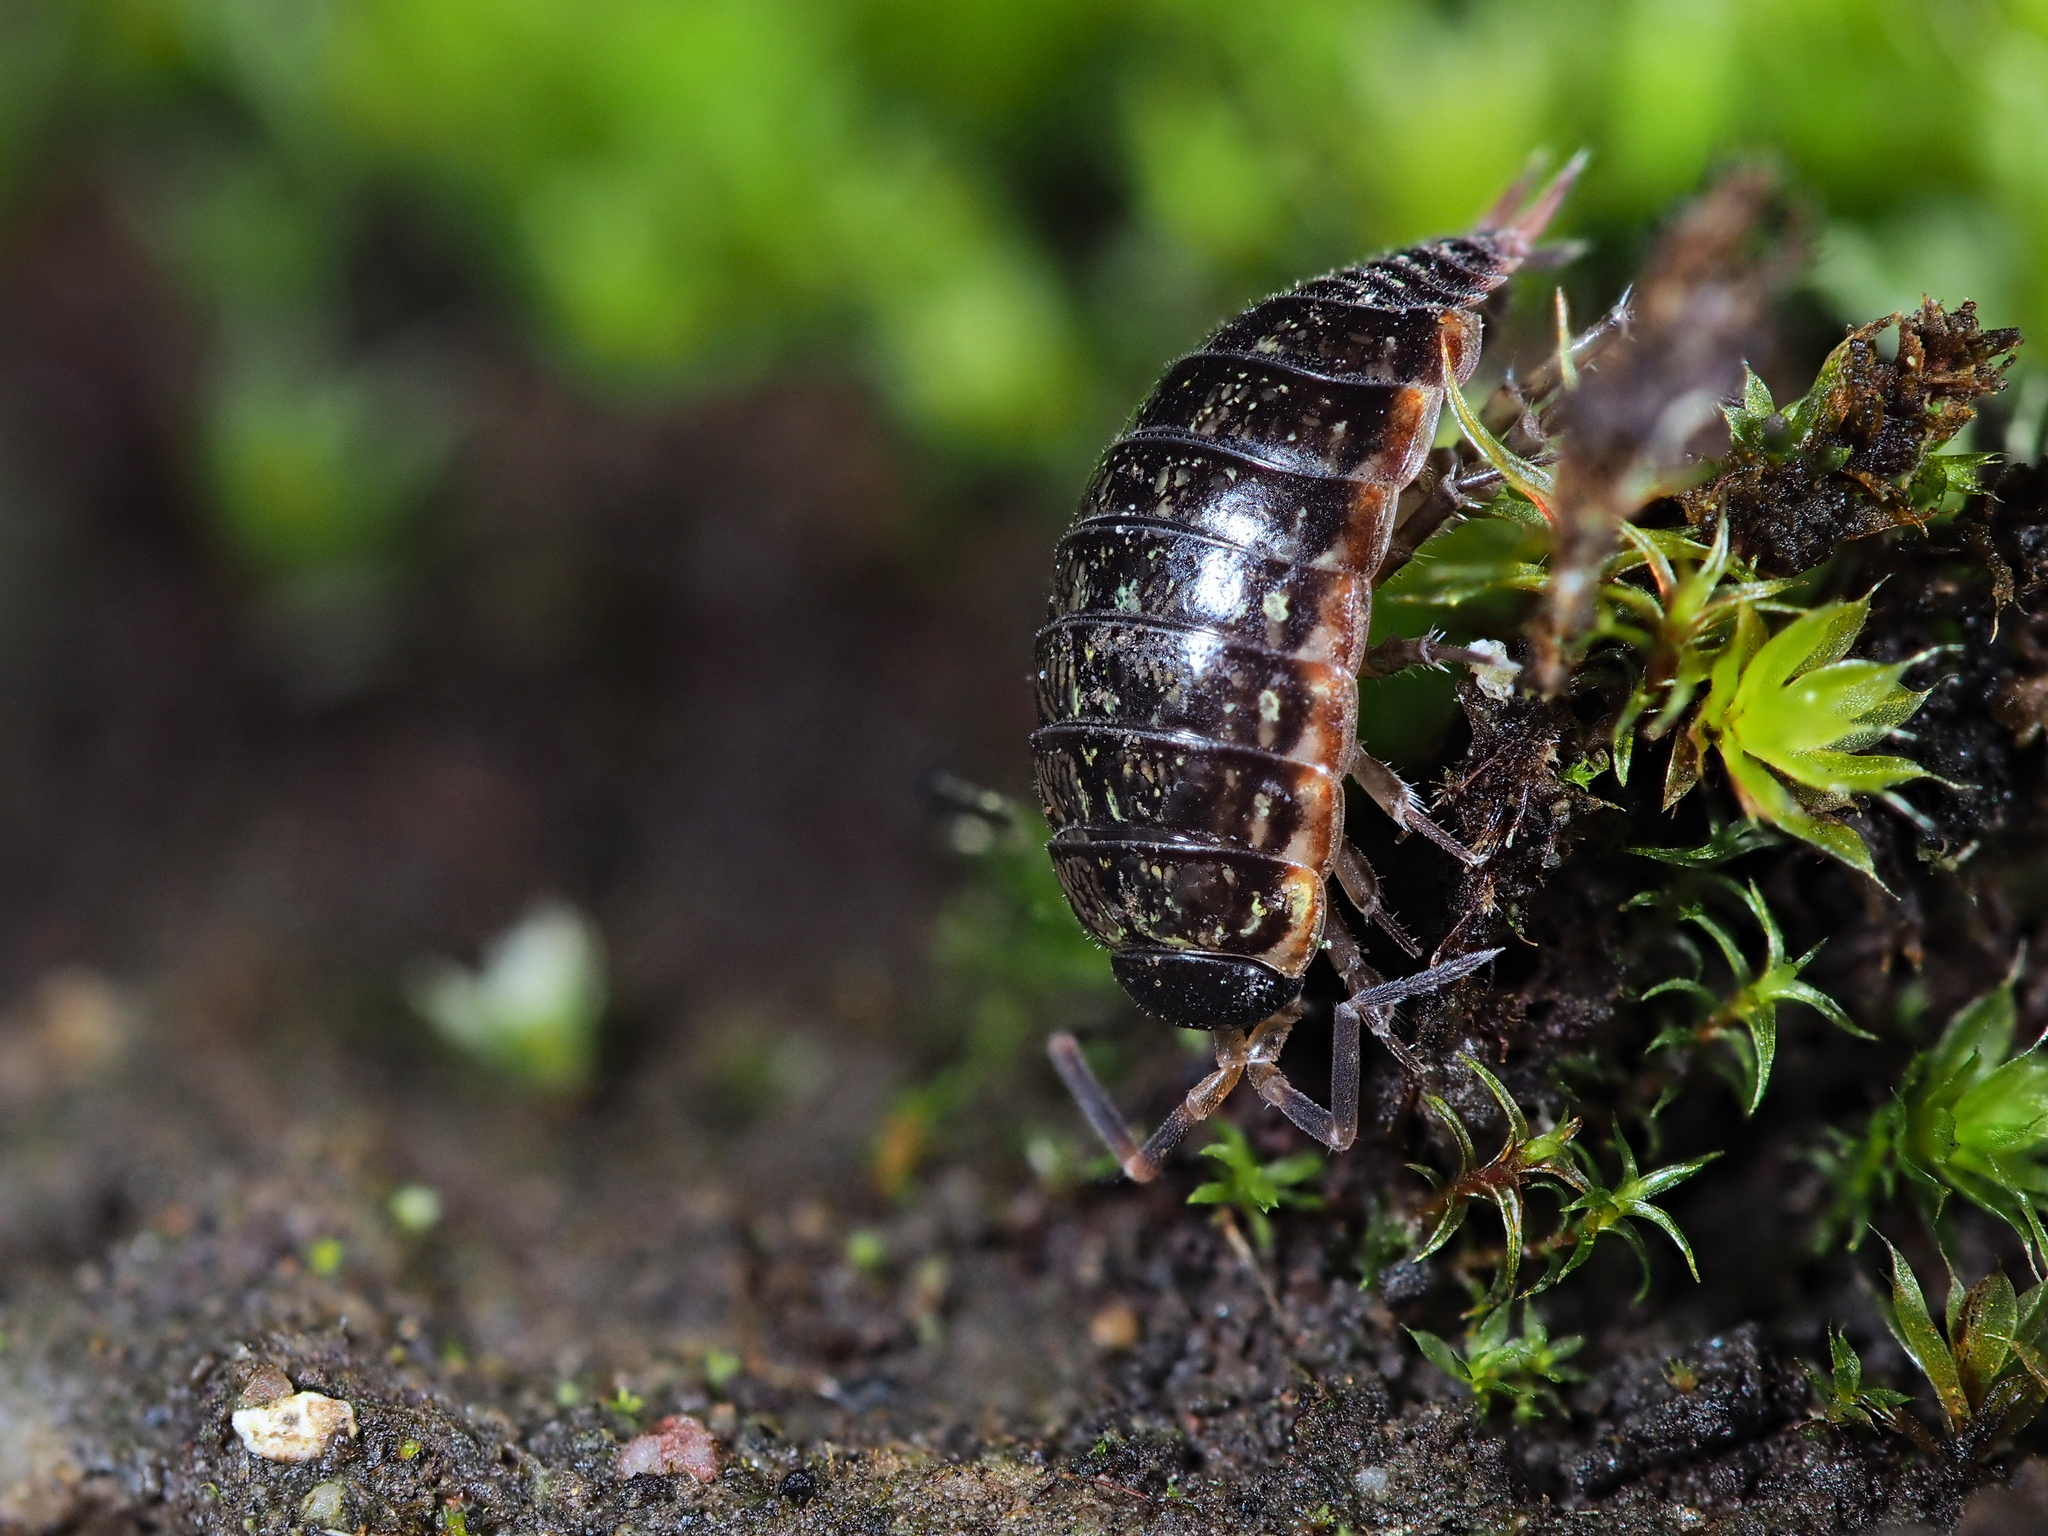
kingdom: Animalia
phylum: Arthropoda
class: Malacostraca
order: Isopoda
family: Philosciidae
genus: Philoscia
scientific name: Philoscia muscorum
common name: Common striped woodlouse
